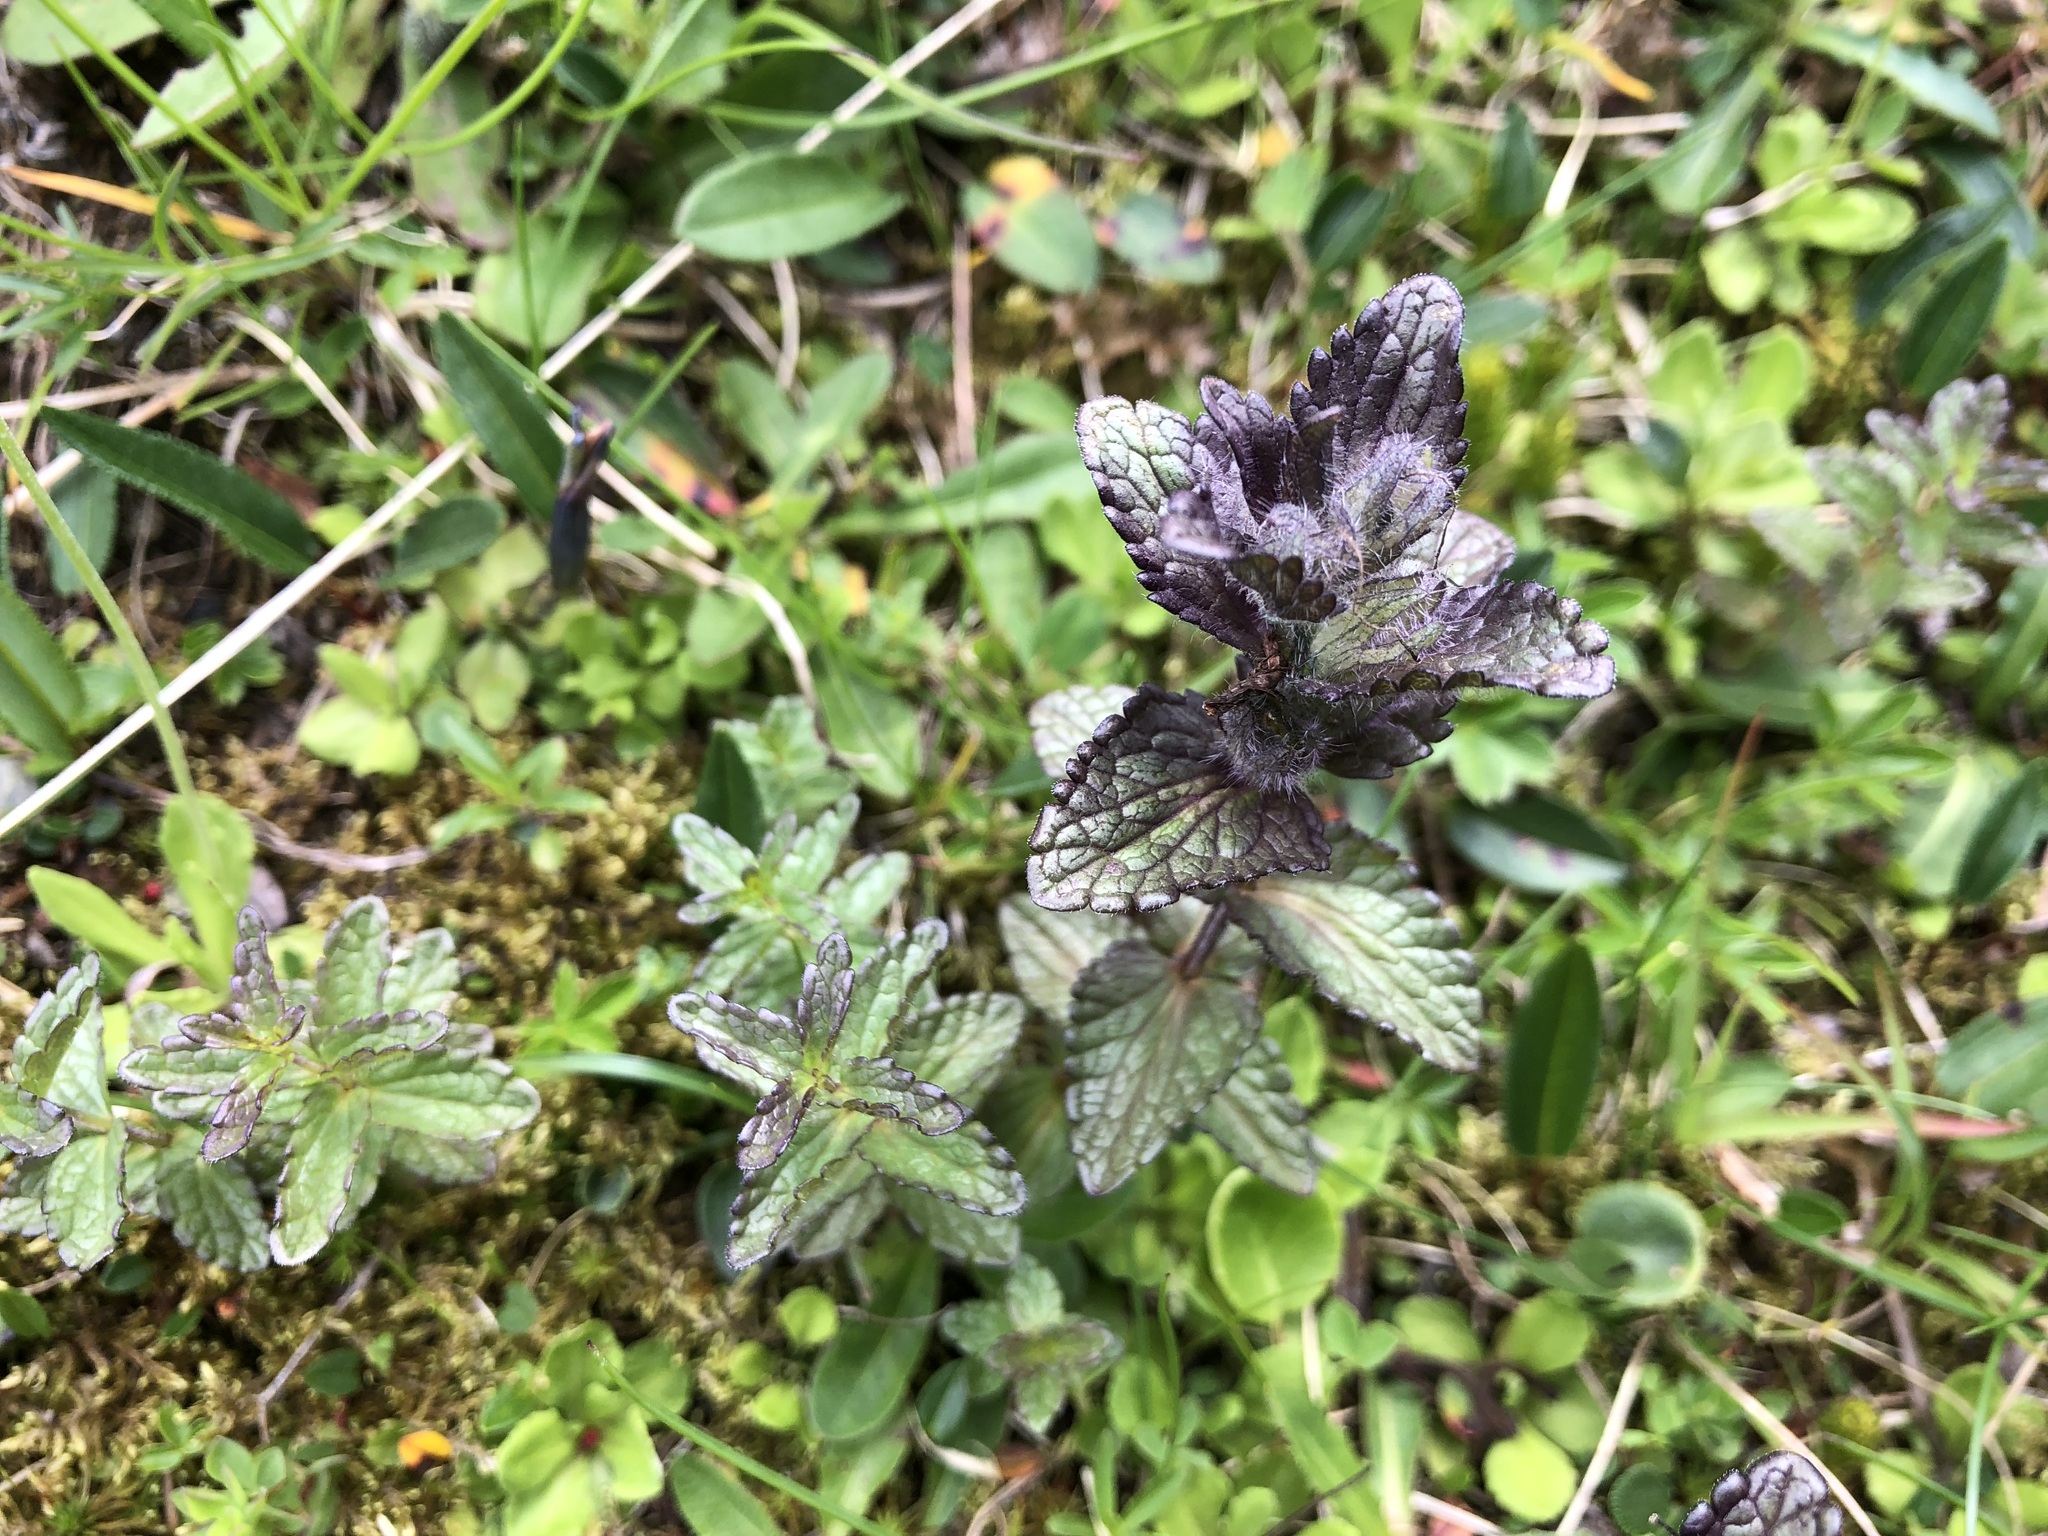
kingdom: Plantae
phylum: Tracheophyta
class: Magnoliopsida
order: Lamiales
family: Orobanchaceae
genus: Bartsia
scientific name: Bartsia alpina
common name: Alpine bartsia
